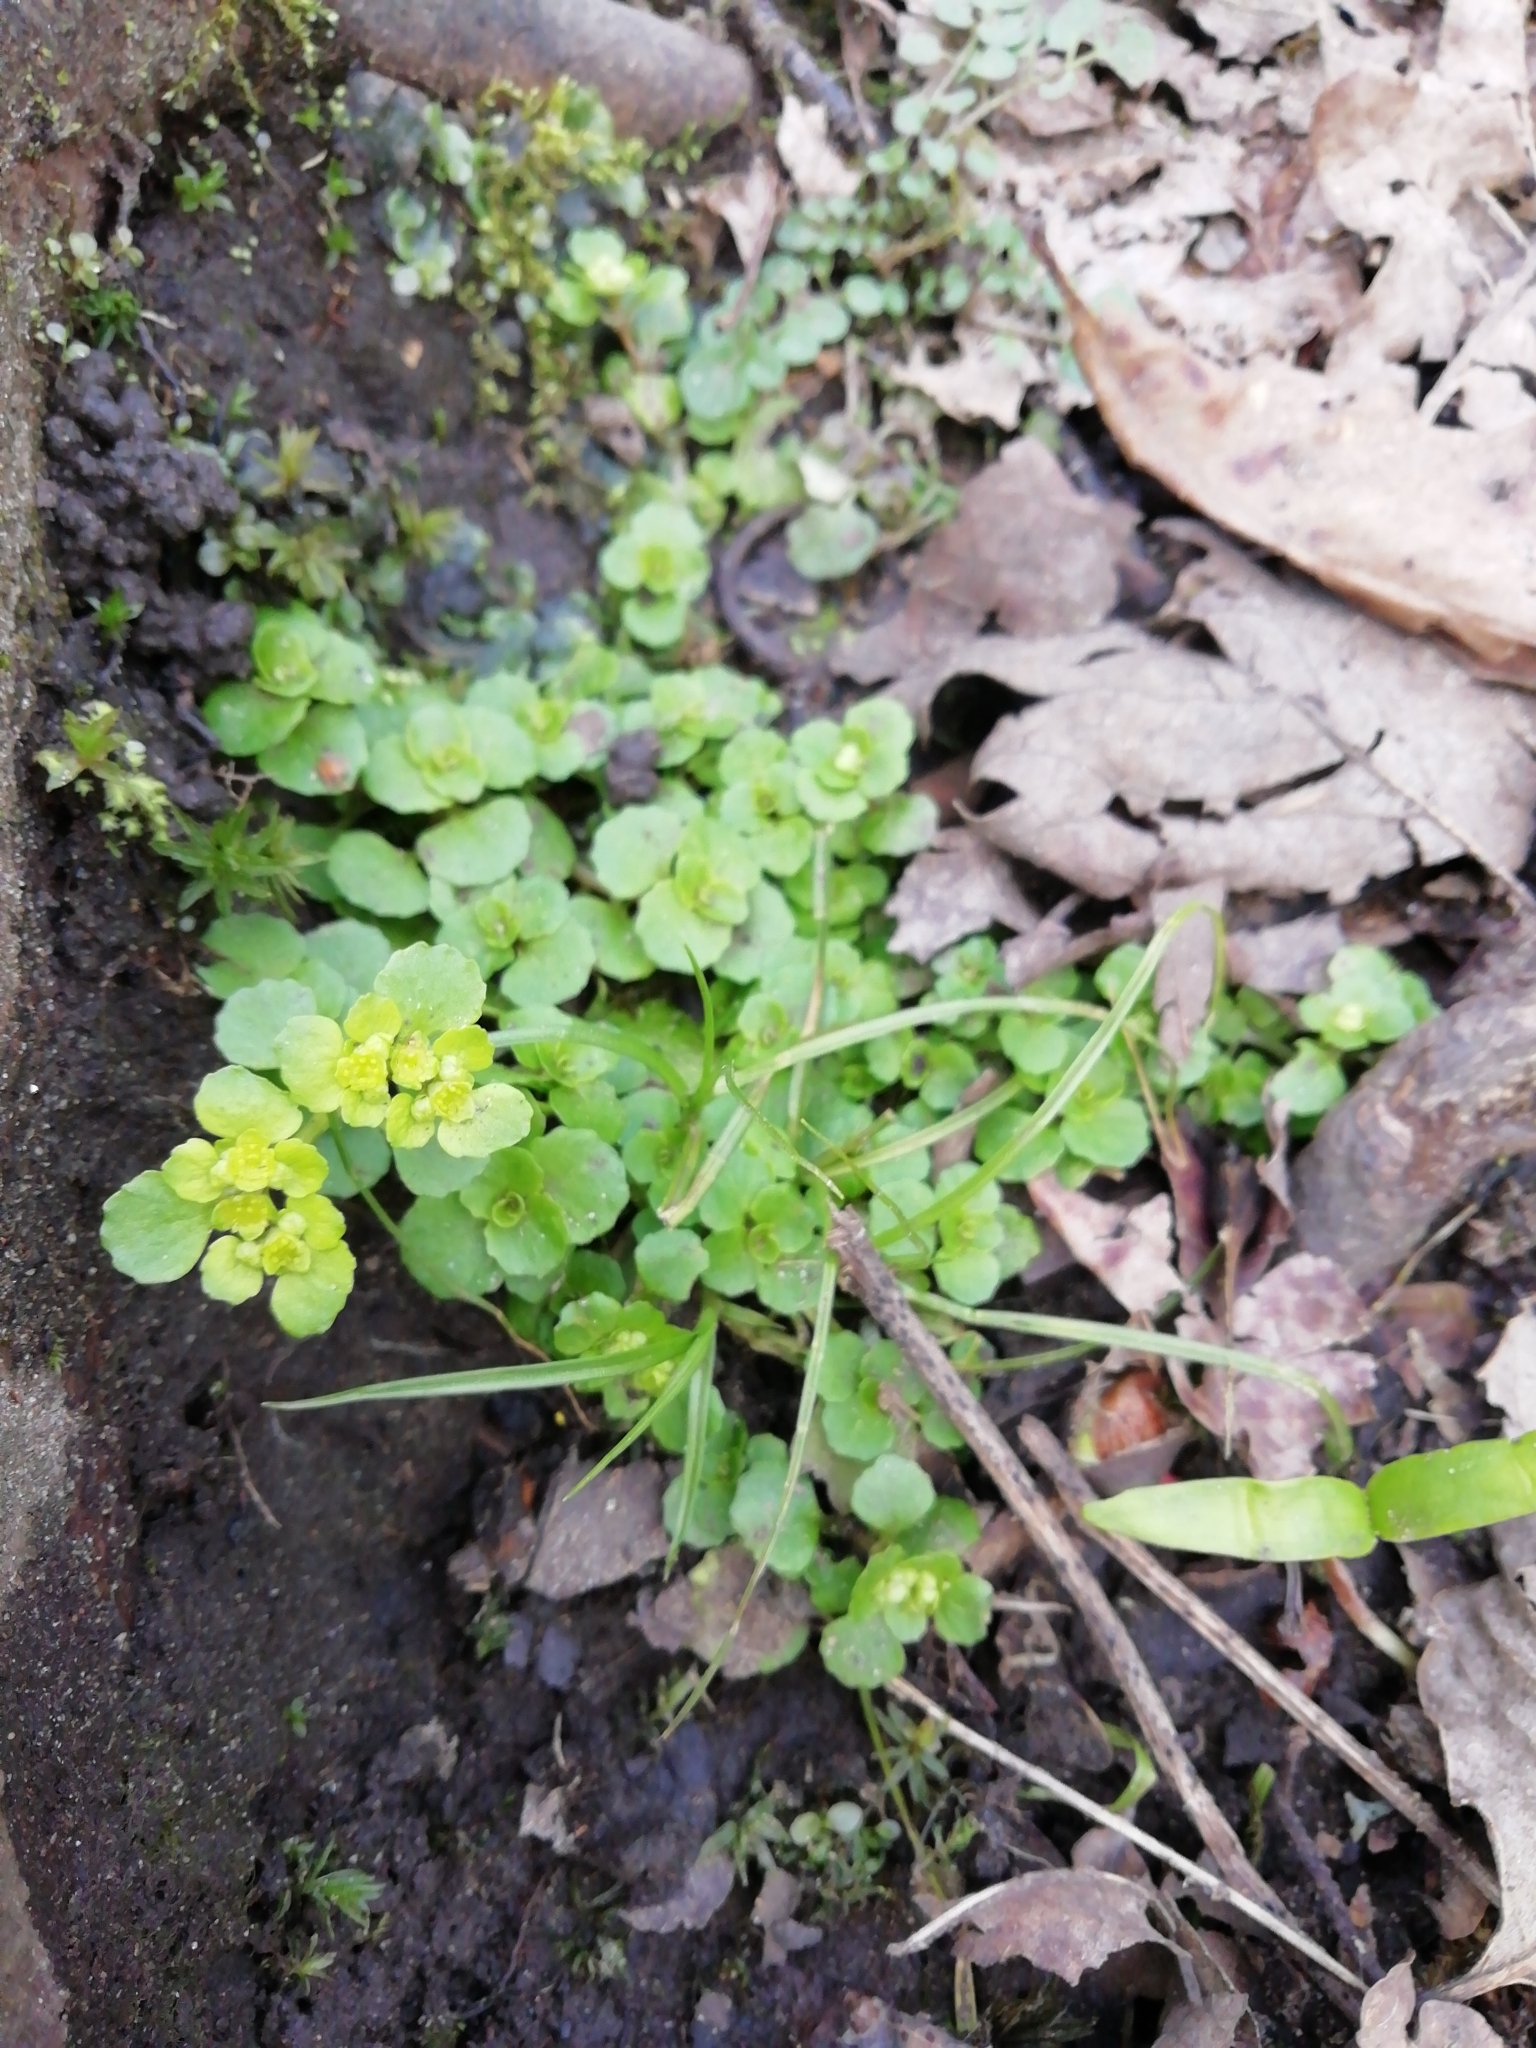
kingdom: Plantae
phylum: Tracheophyta
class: Magnoliopsida
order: Saxifragales
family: Saxifragaceae
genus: Chrysosplenium
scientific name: Chrysosplenium oppositifolium
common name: Opposite-leaved golden-saxifrage
